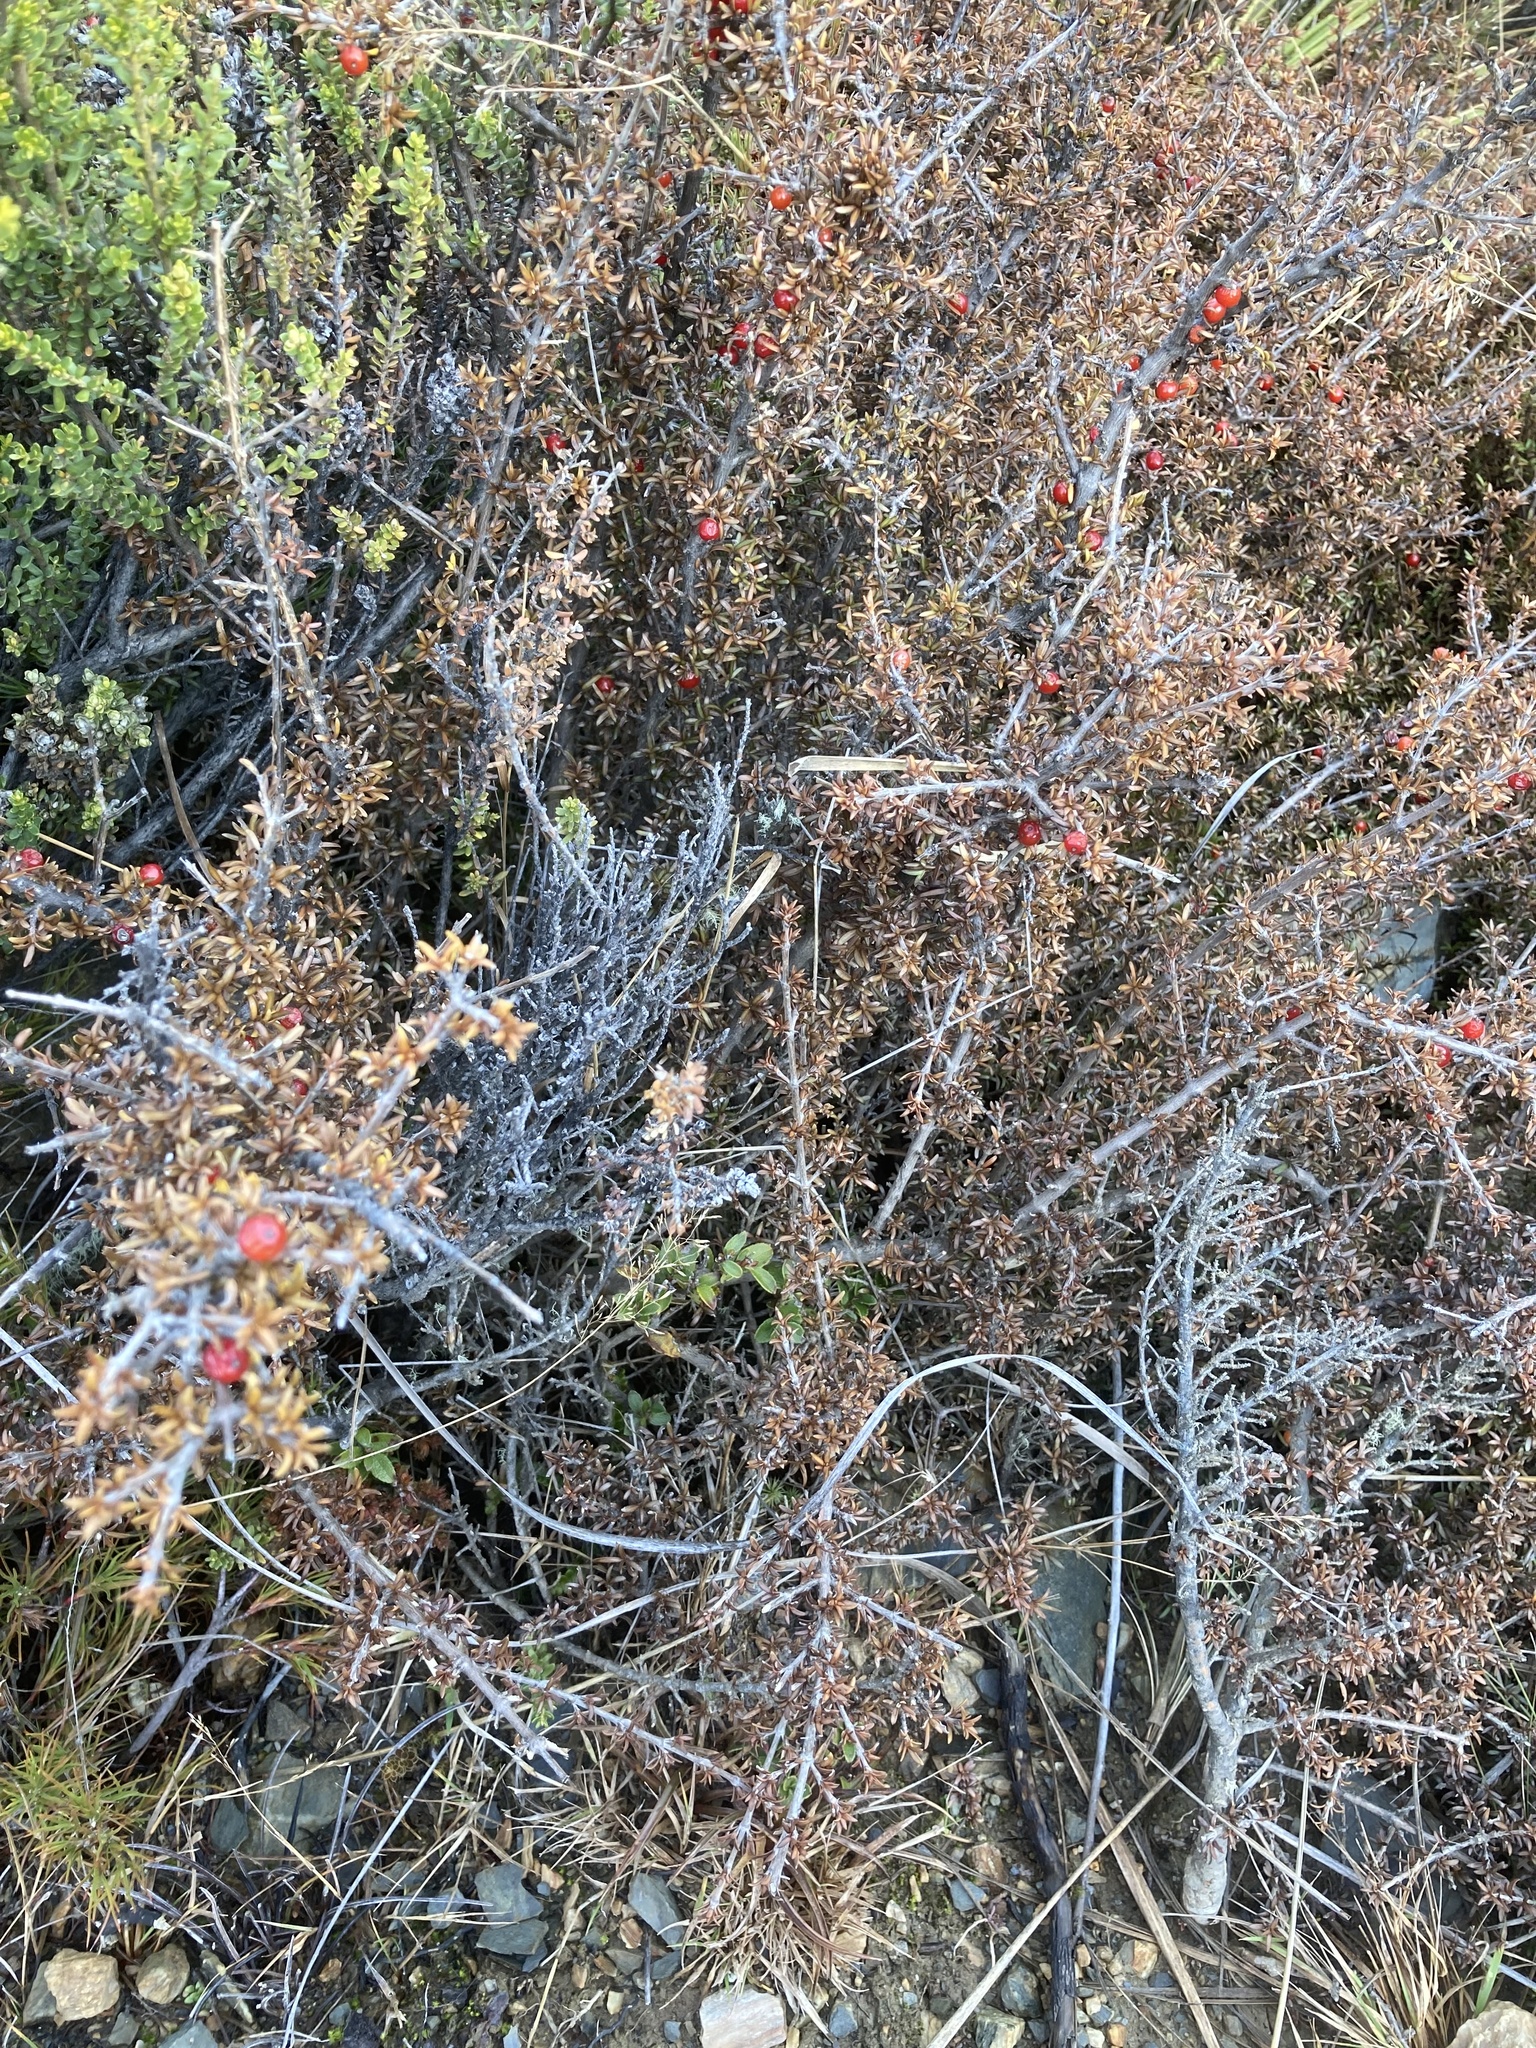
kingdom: Plantae
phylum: Tracheophyta
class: Magnoliopsida
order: Gentianales
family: Rubiaceae
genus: Coprosma
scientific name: Coprosma cheesemanii
